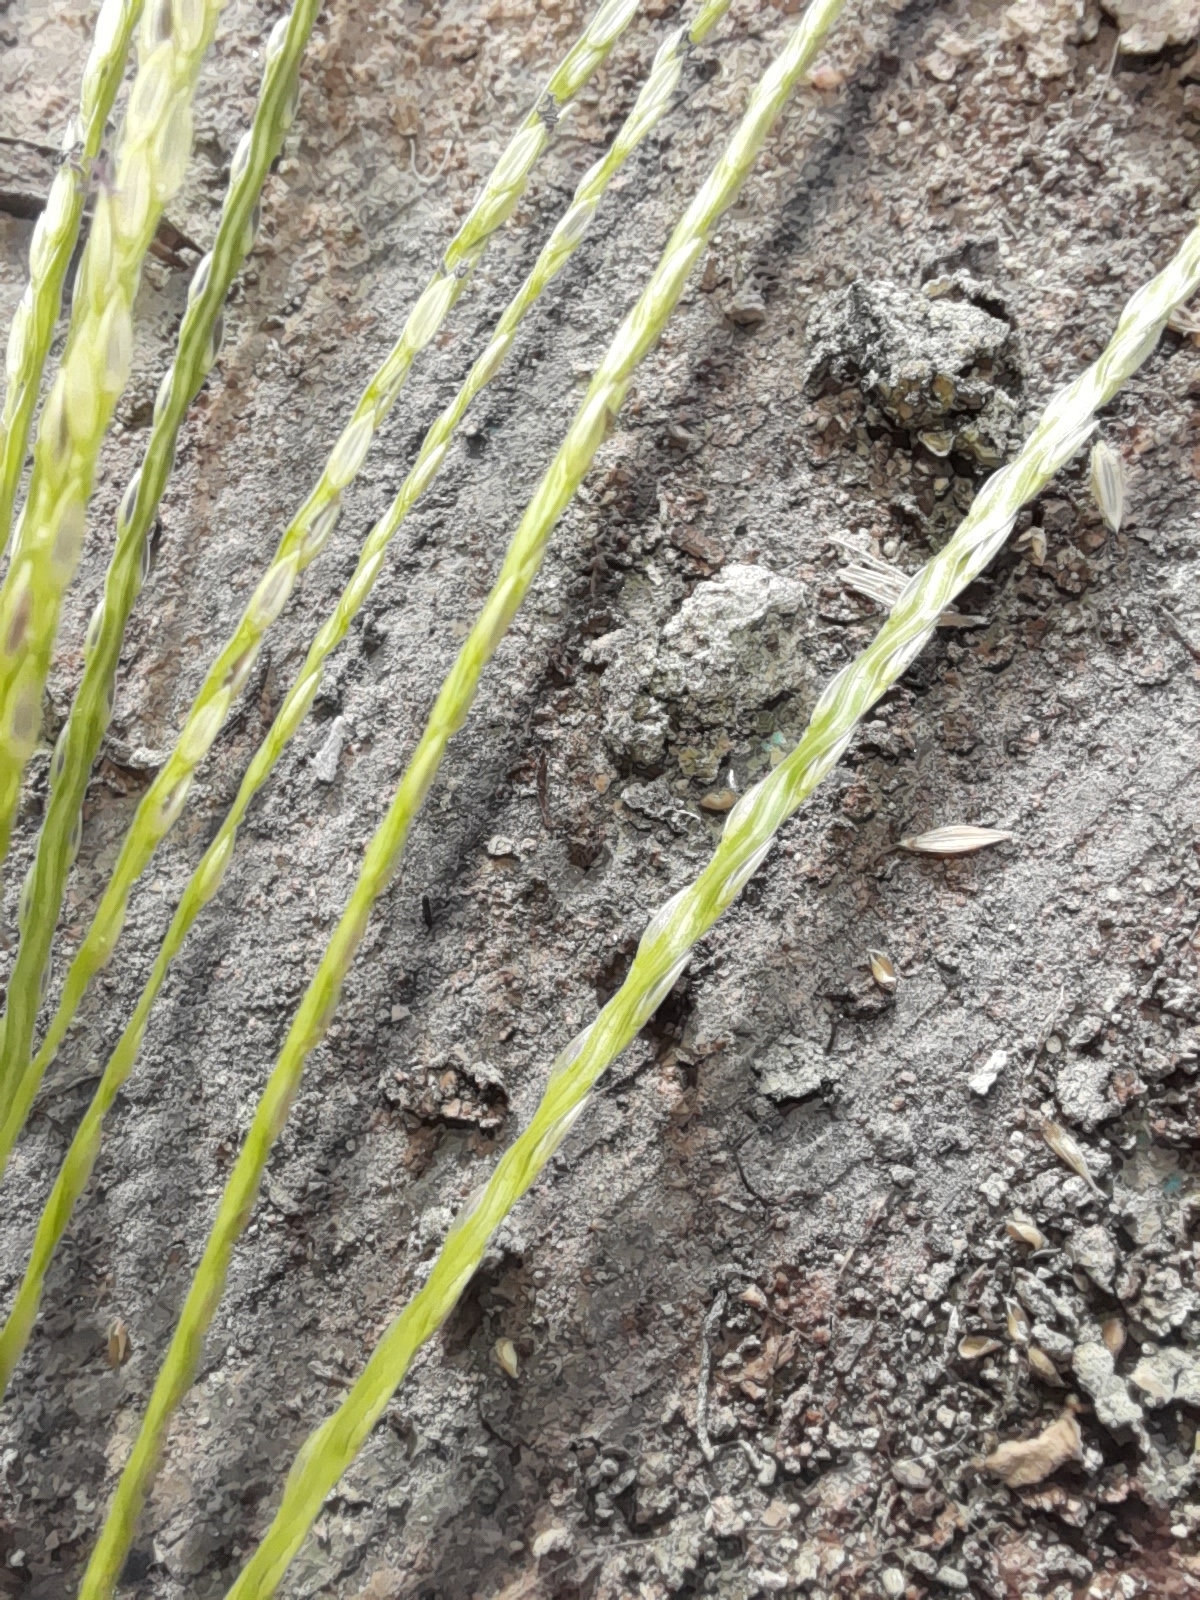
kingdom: Plantae
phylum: Tracheophyta
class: Liliopsida
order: Poales
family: Poaceae
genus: Digitaria
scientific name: Digitaria sanguinalis
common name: Hairy crabgrass
